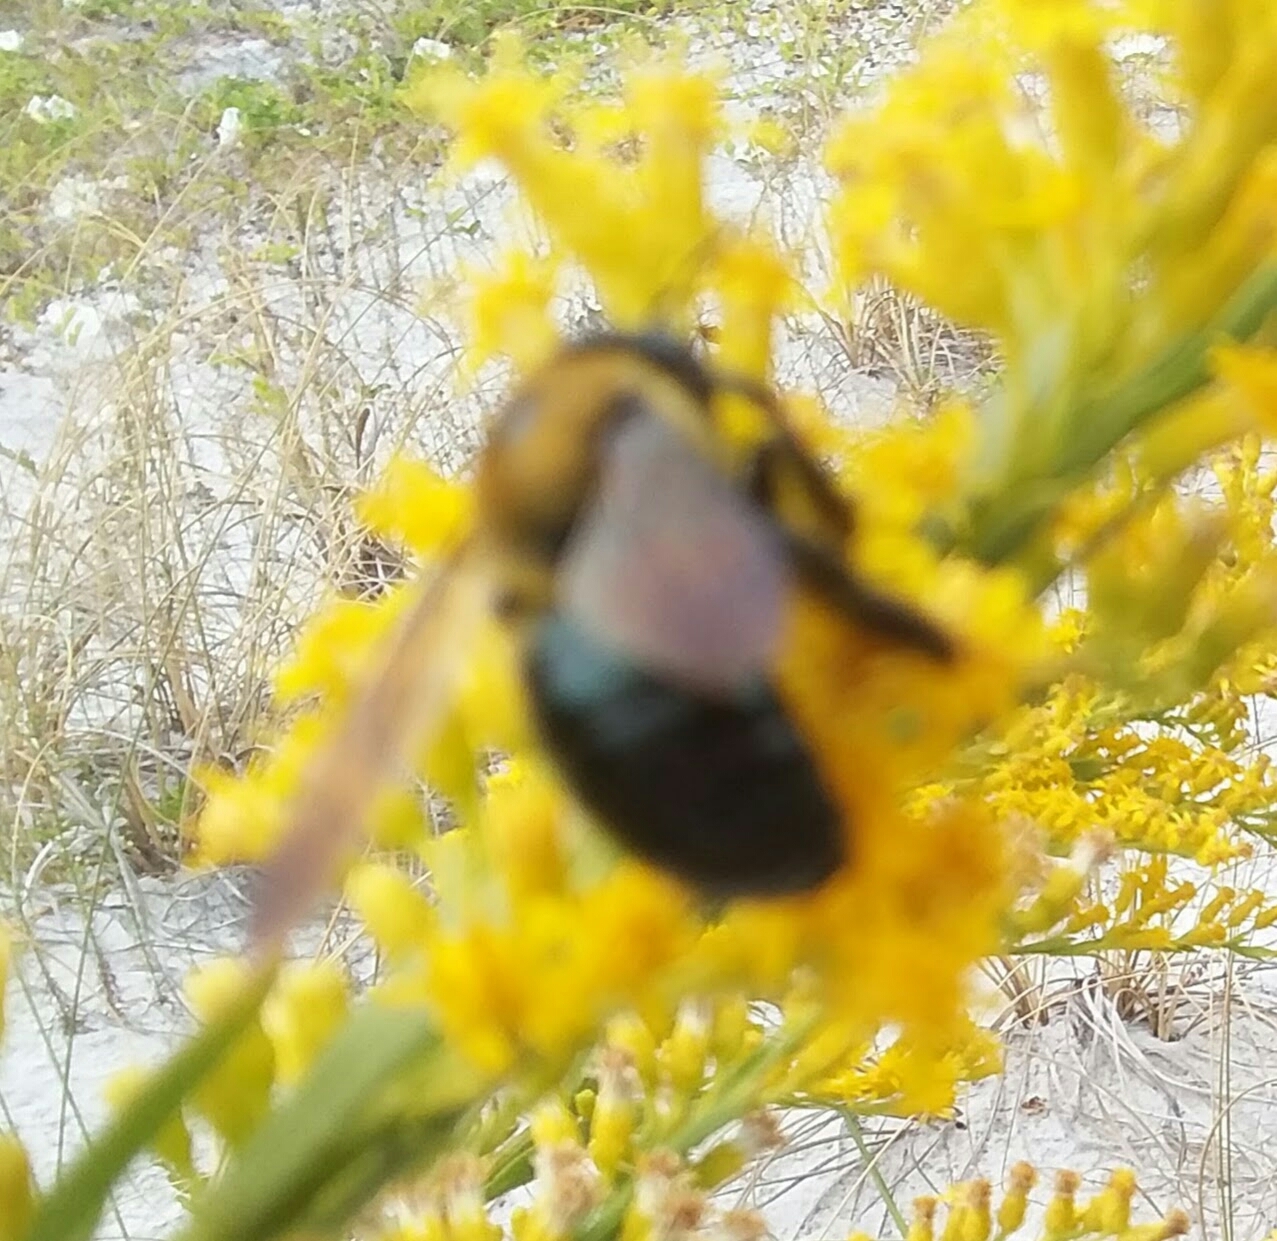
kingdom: Animalia
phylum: Arthropoda
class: Insecta
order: Hymenoptera
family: Apidae
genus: Xylocopa
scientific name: Xylocopa virginica
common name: Carpenter bee
